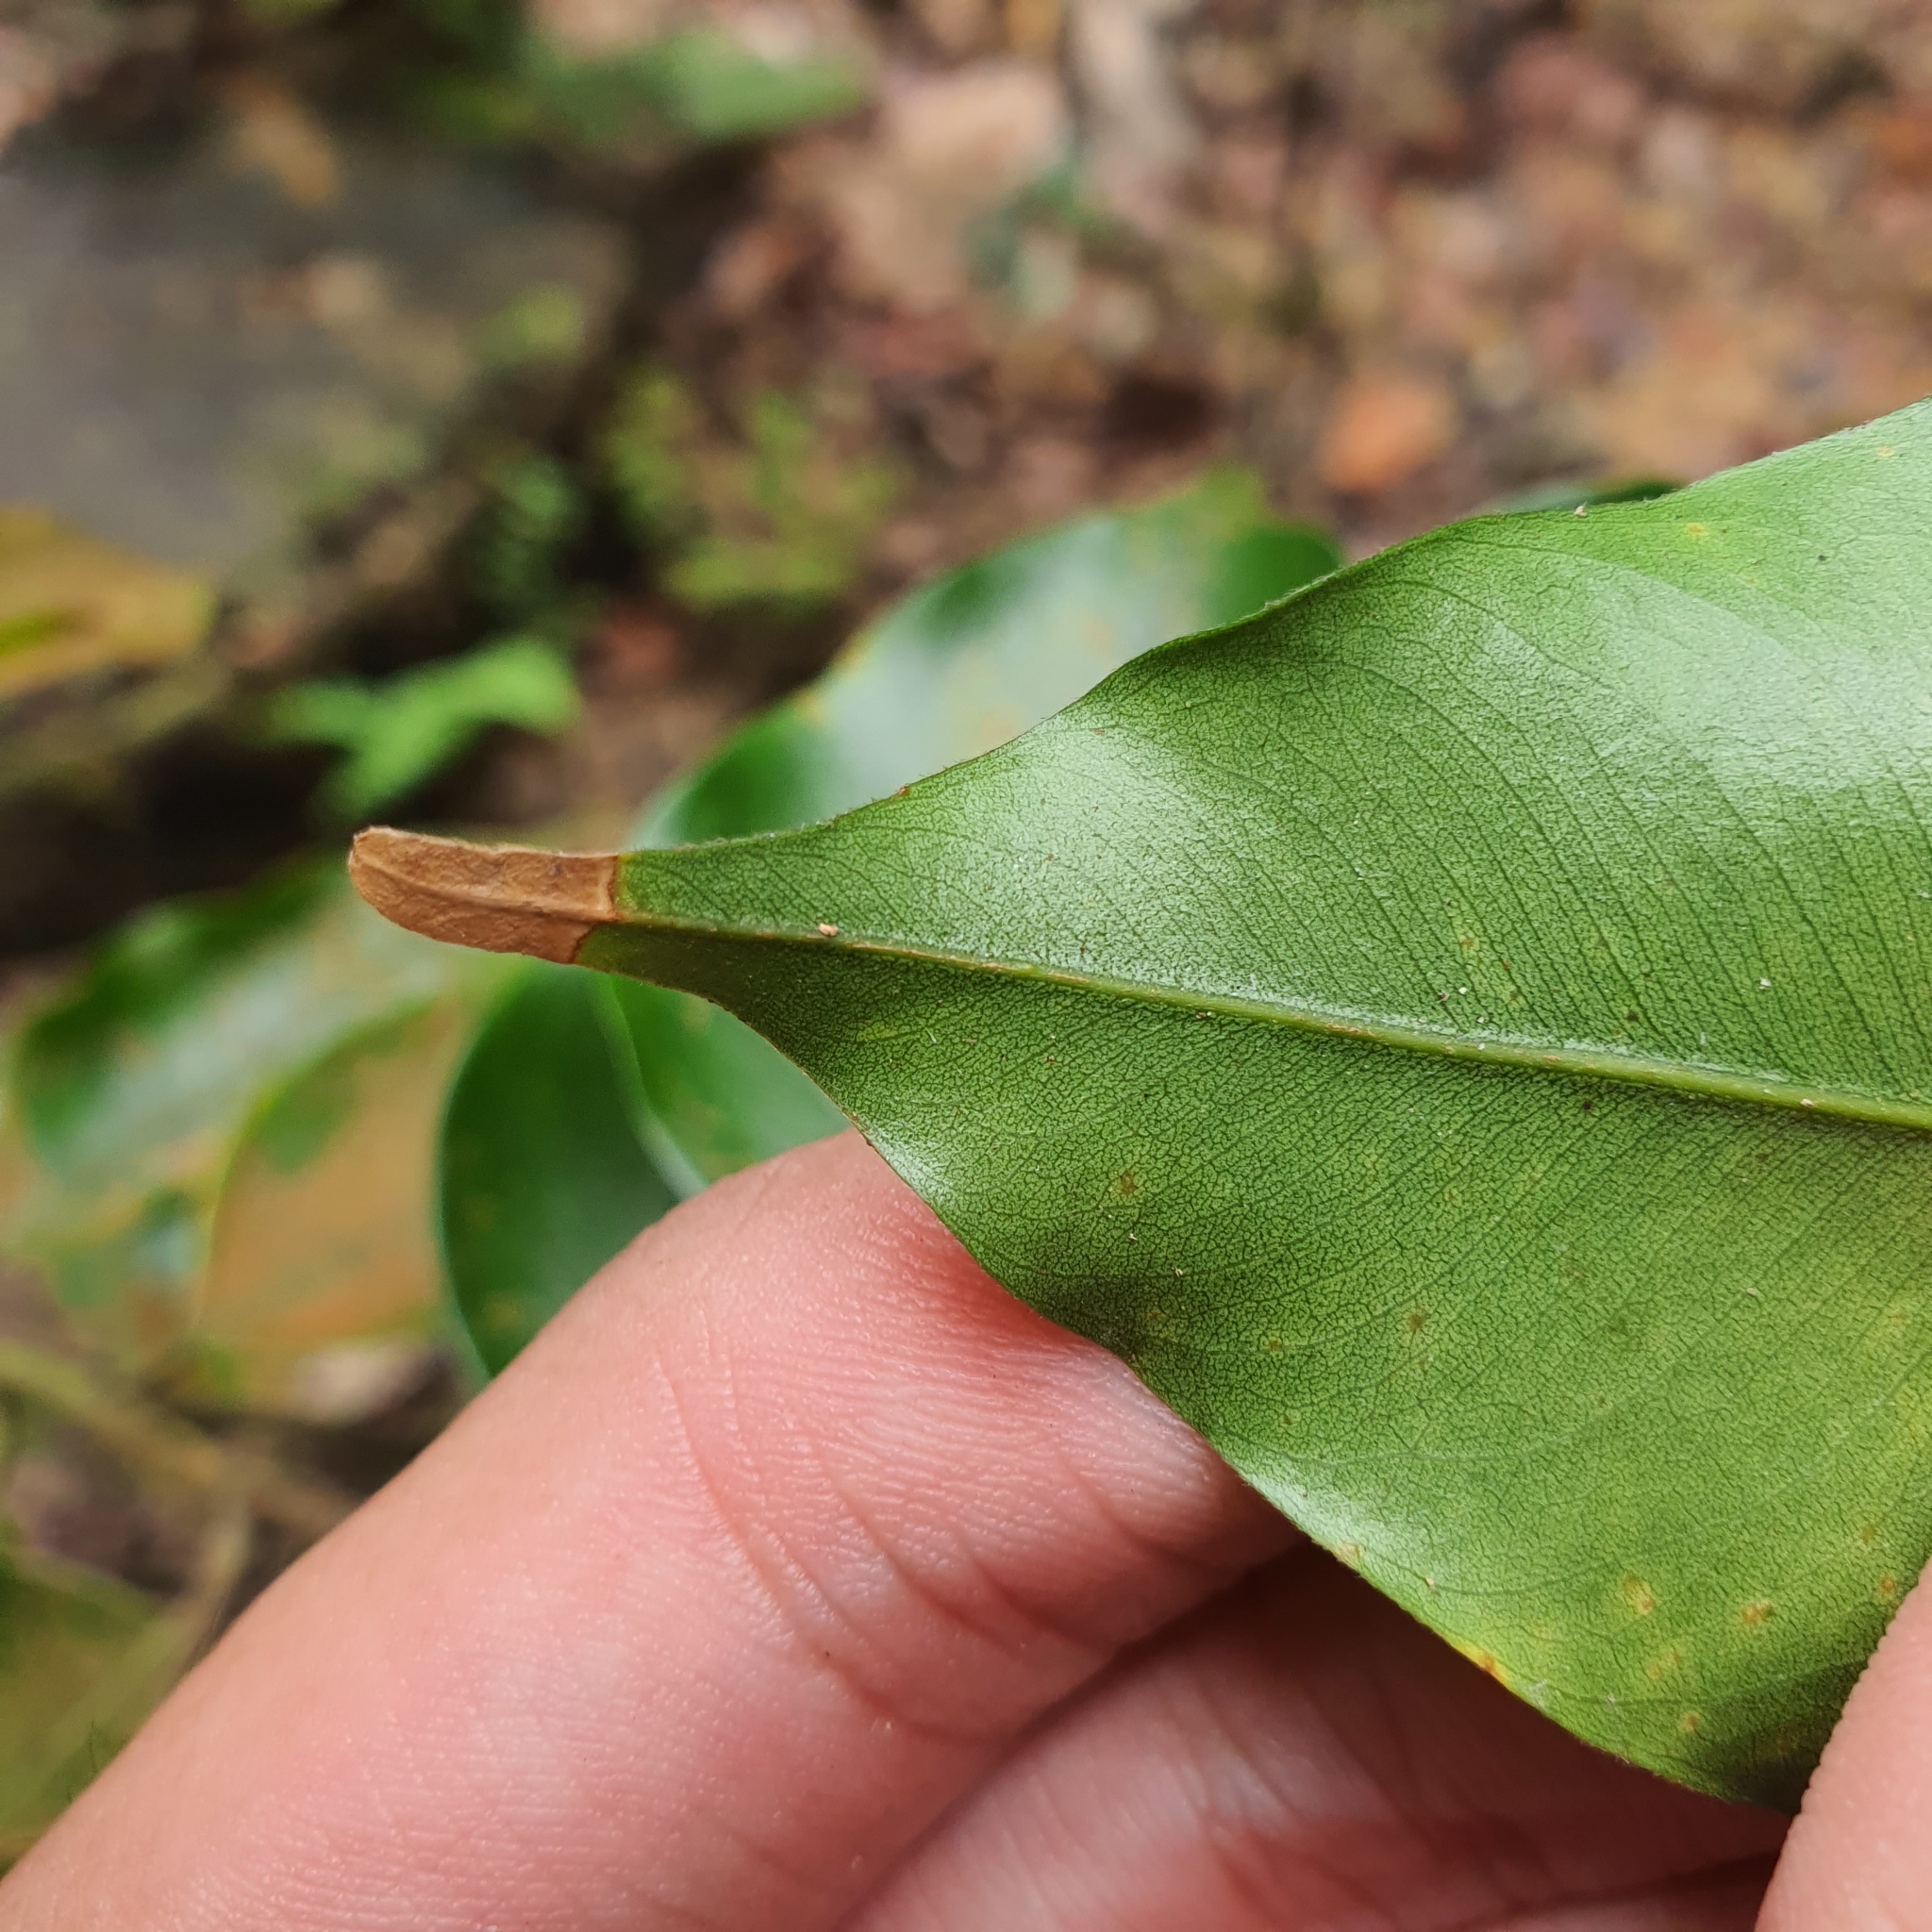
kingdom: Plantae
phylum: Tracheophyta
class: Magnoliopsida
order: Malvales
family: Dipterocarpaceae
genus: Hopea
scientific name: Hopea mengarawan
